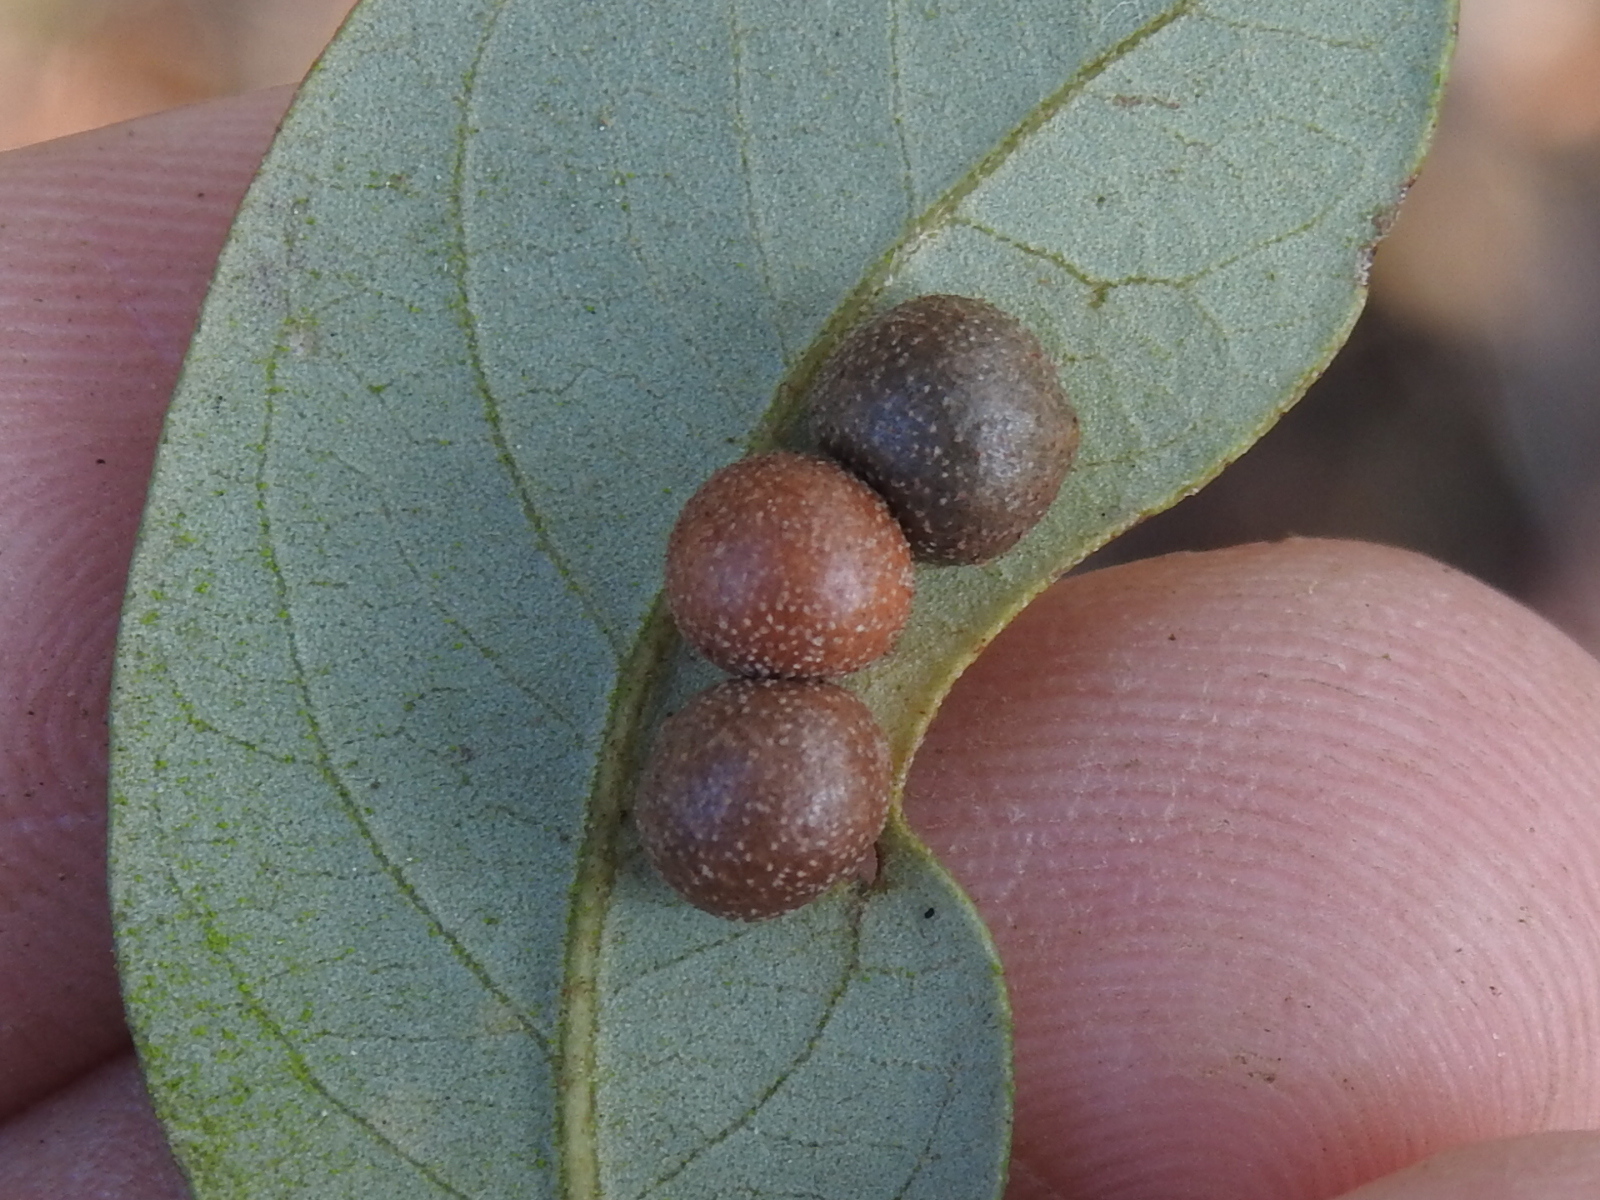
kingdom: Animalia
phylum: Arthropoda
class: Insecta
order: Hymenoptera
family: Cynipidae
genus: Belonocnema
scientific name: Belonocnema kinseyi
